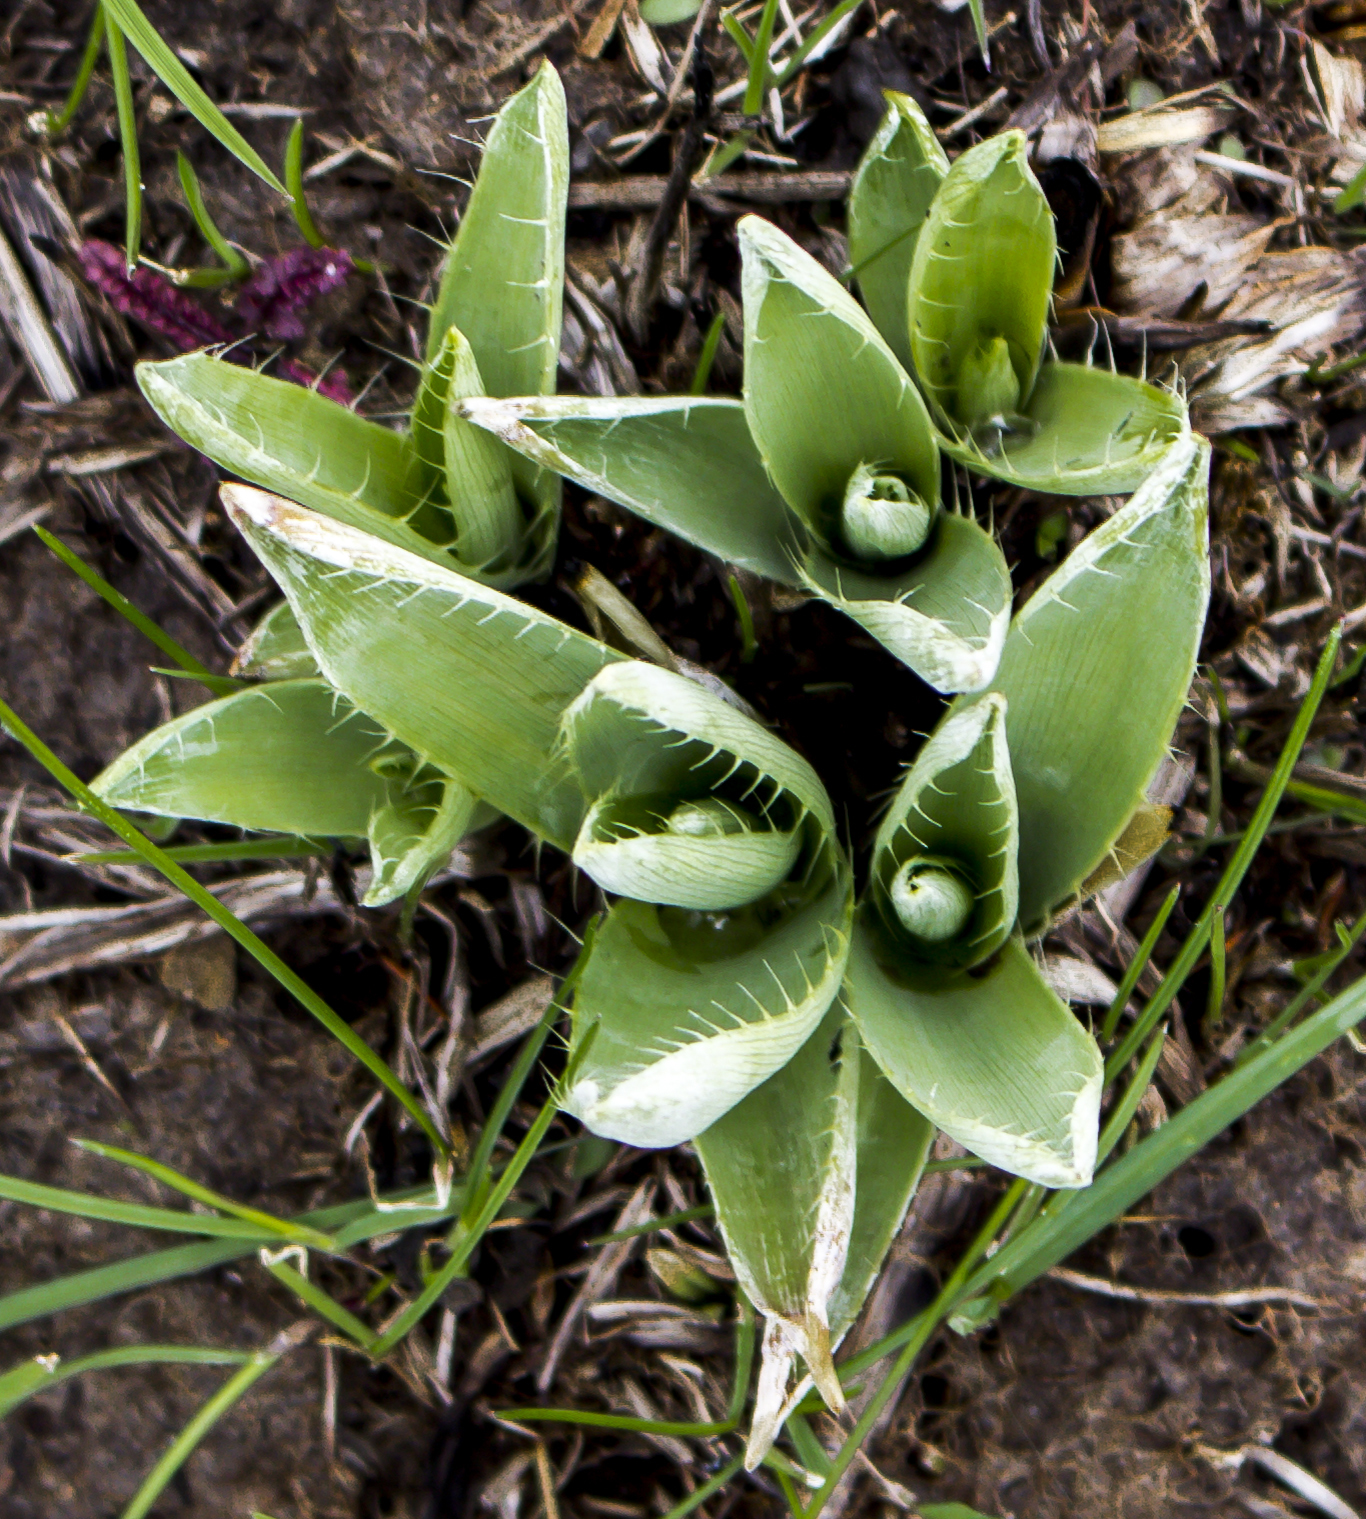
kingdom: Plantae
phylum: Tracheophyta
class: Magnoliopsida
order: Apiales
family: Apiaceae
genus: Eryngium
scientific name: Eryngium yuccifolium
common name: Button eryngo
